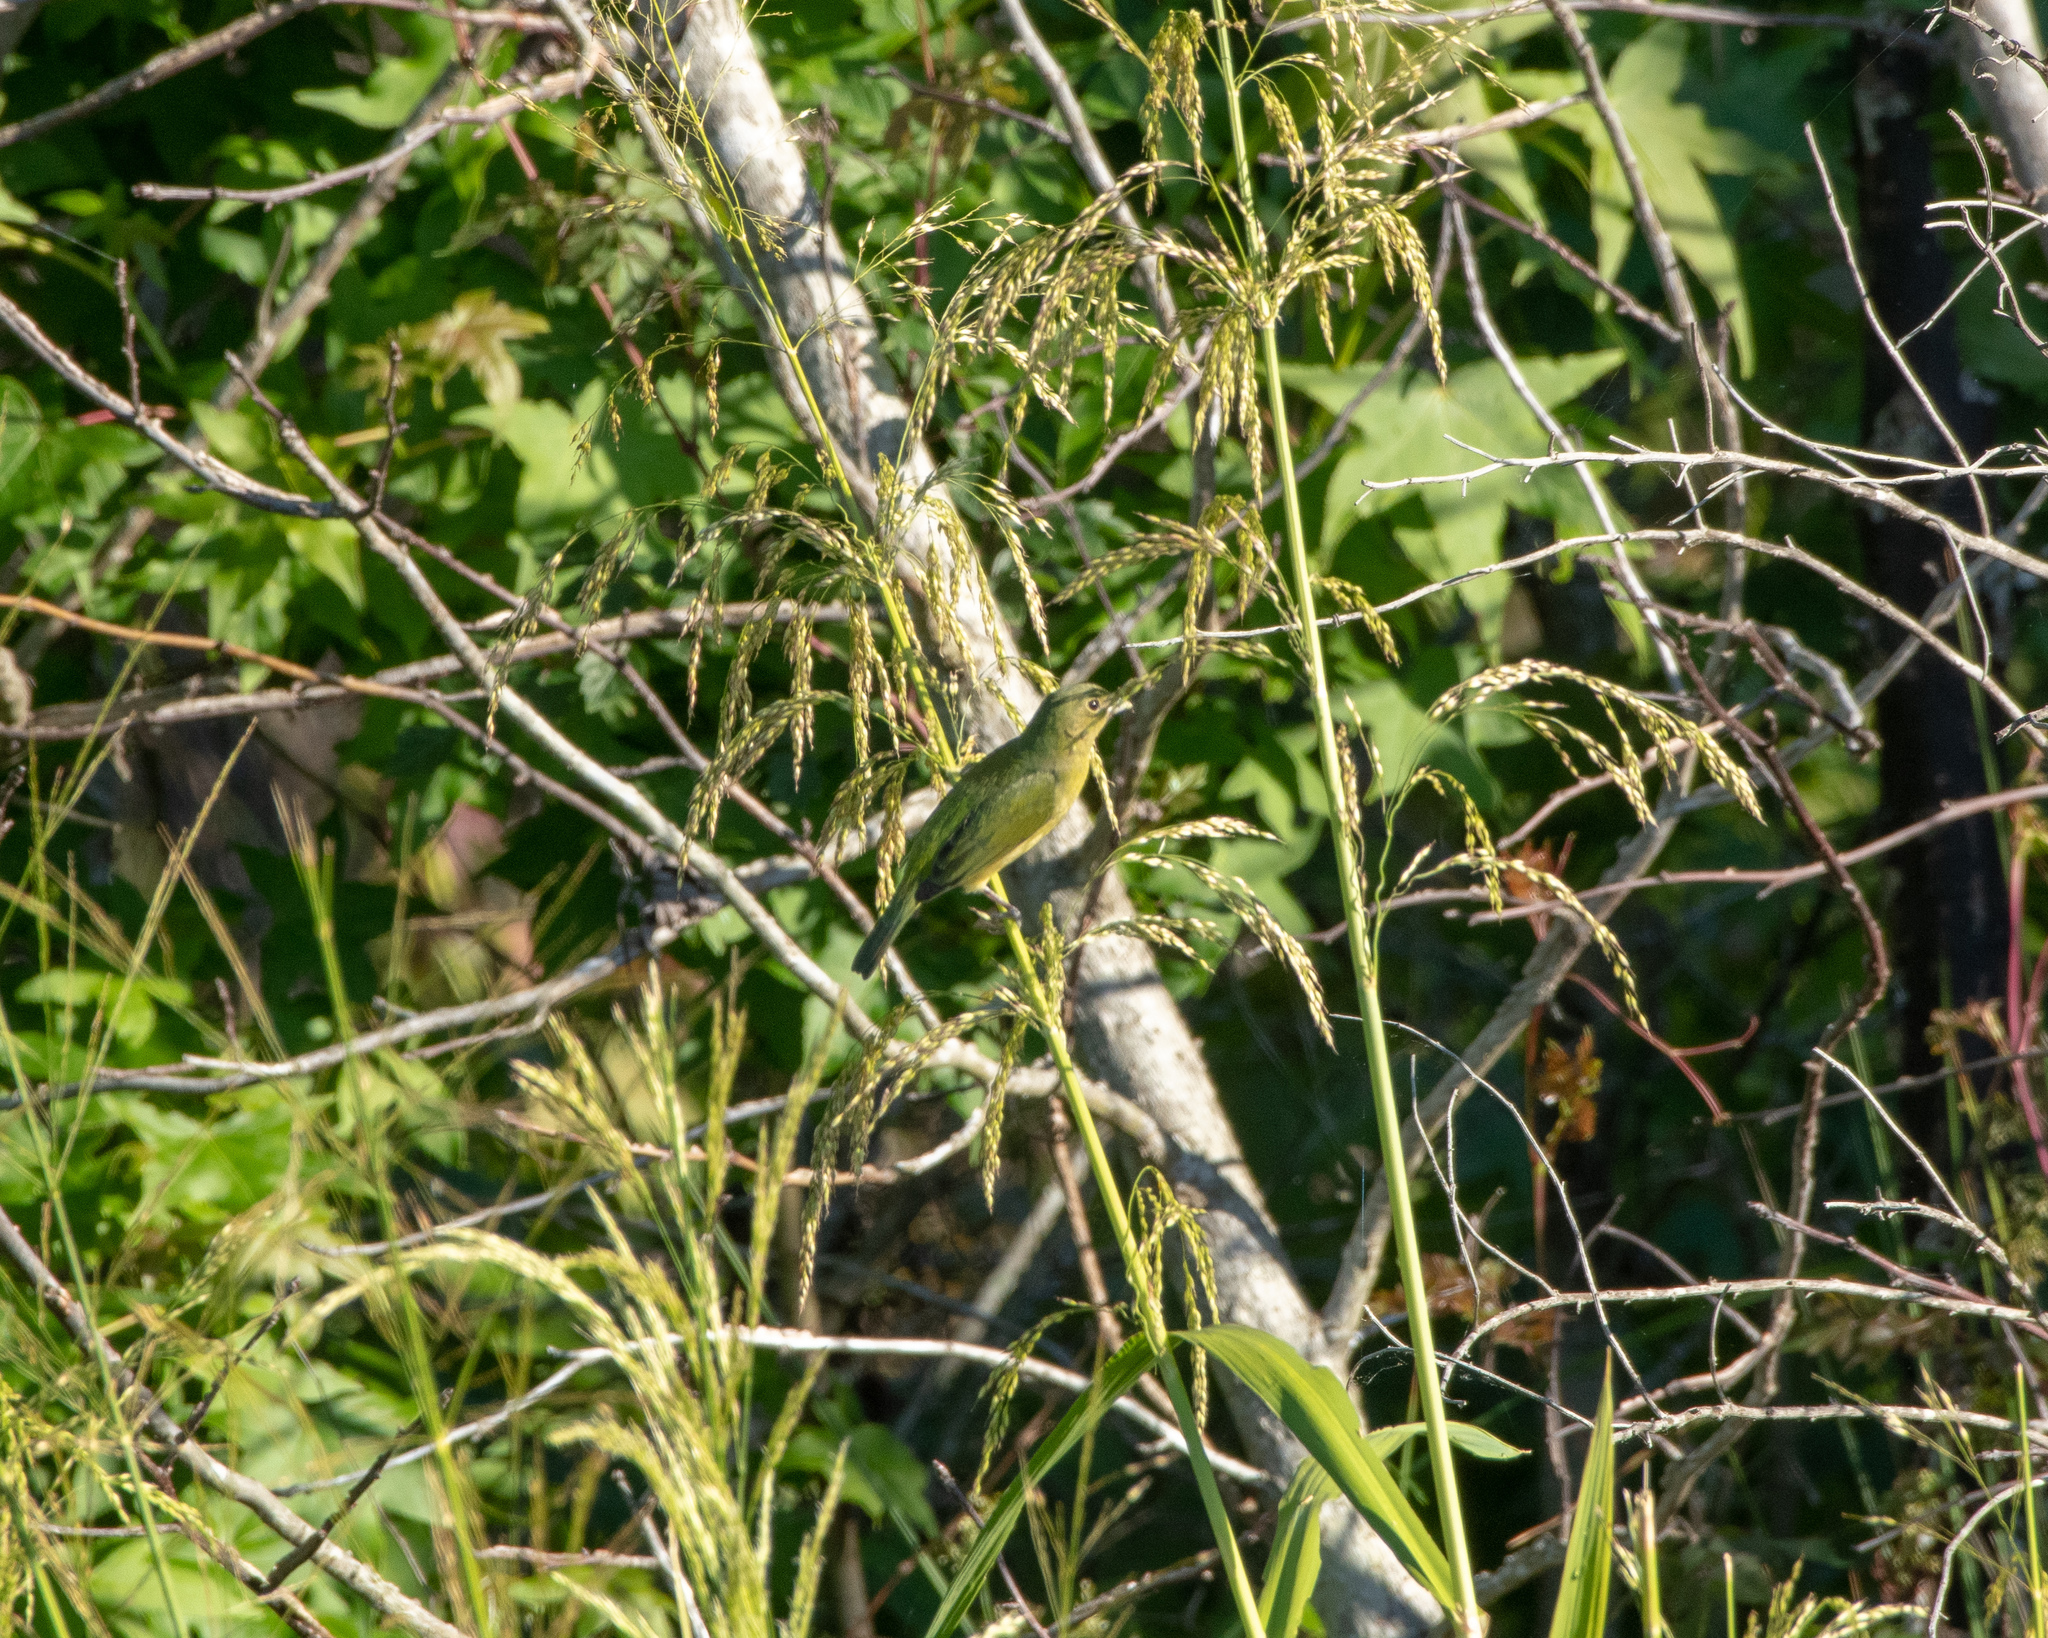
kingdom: Animalia
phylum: Chordata
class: Aves
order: Passeriformes
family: Cardinalidae
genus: Passerina
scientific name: Passerina ciris
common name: Painted bunting
